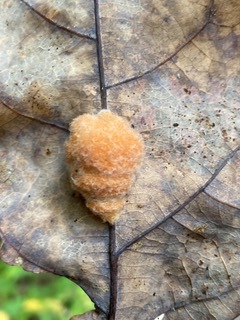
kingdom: Animalia
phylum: Arthropoda
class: Insecta
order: Hymenoptera
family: Cynipidae
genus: Andricus
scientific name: Andricus quercusflocci
